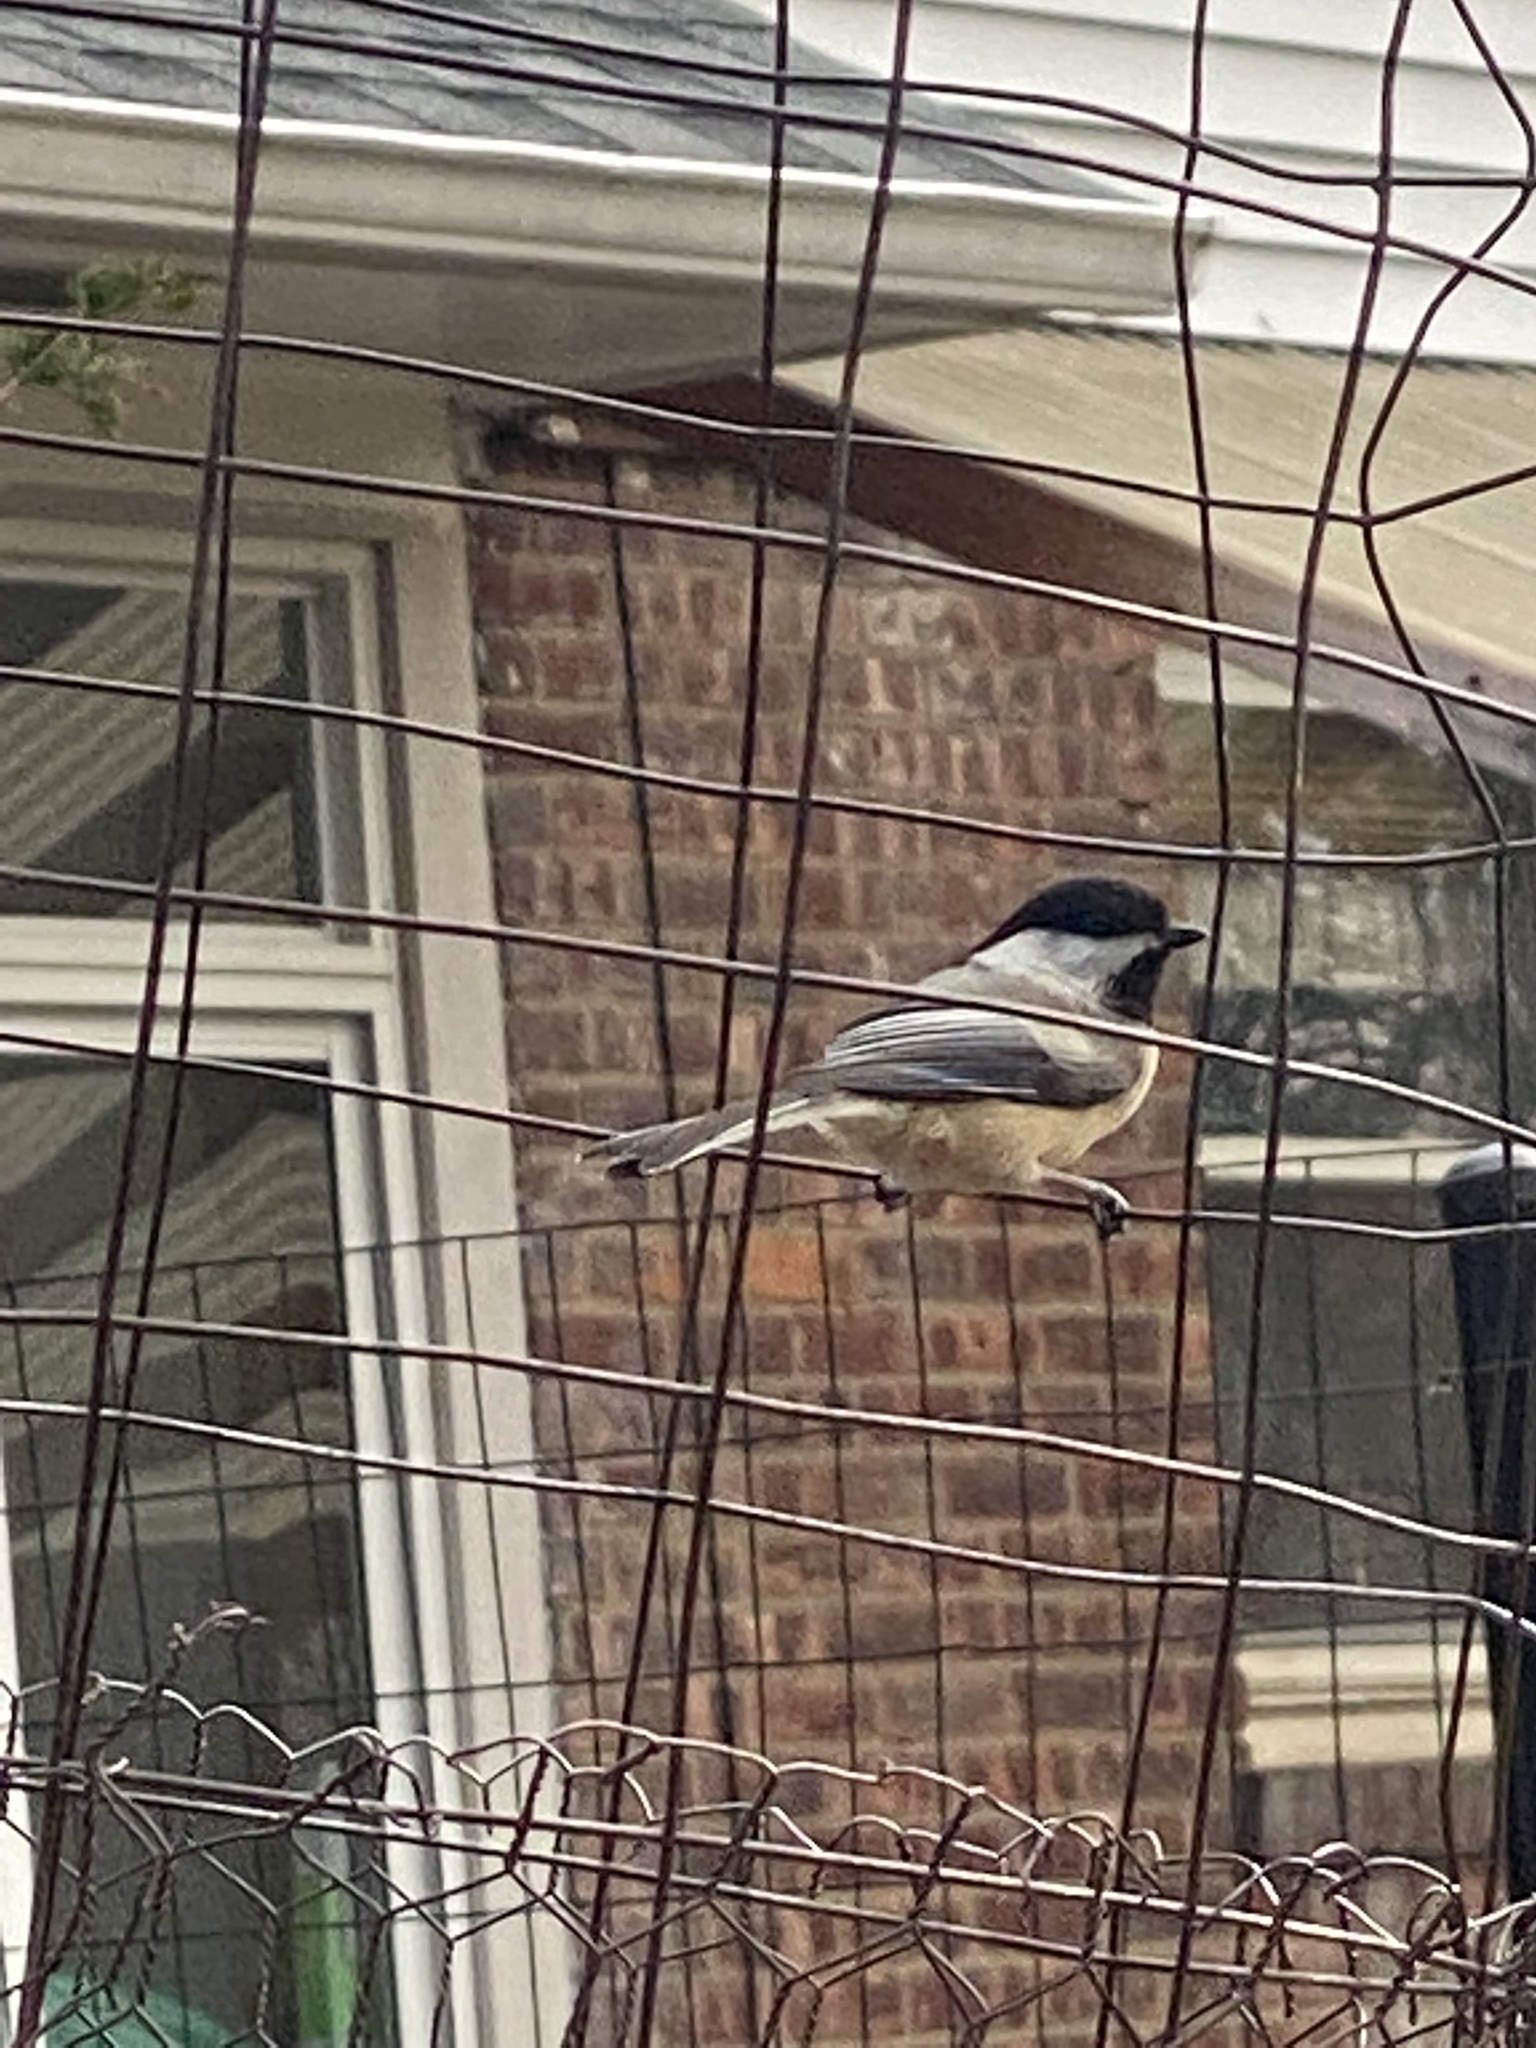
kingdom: Animalia
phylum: Chordata
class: Aves
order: Passeriformes
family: Paridae
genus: Poecile
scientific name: Poecile atricapillus
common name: Black-capped chickadee
